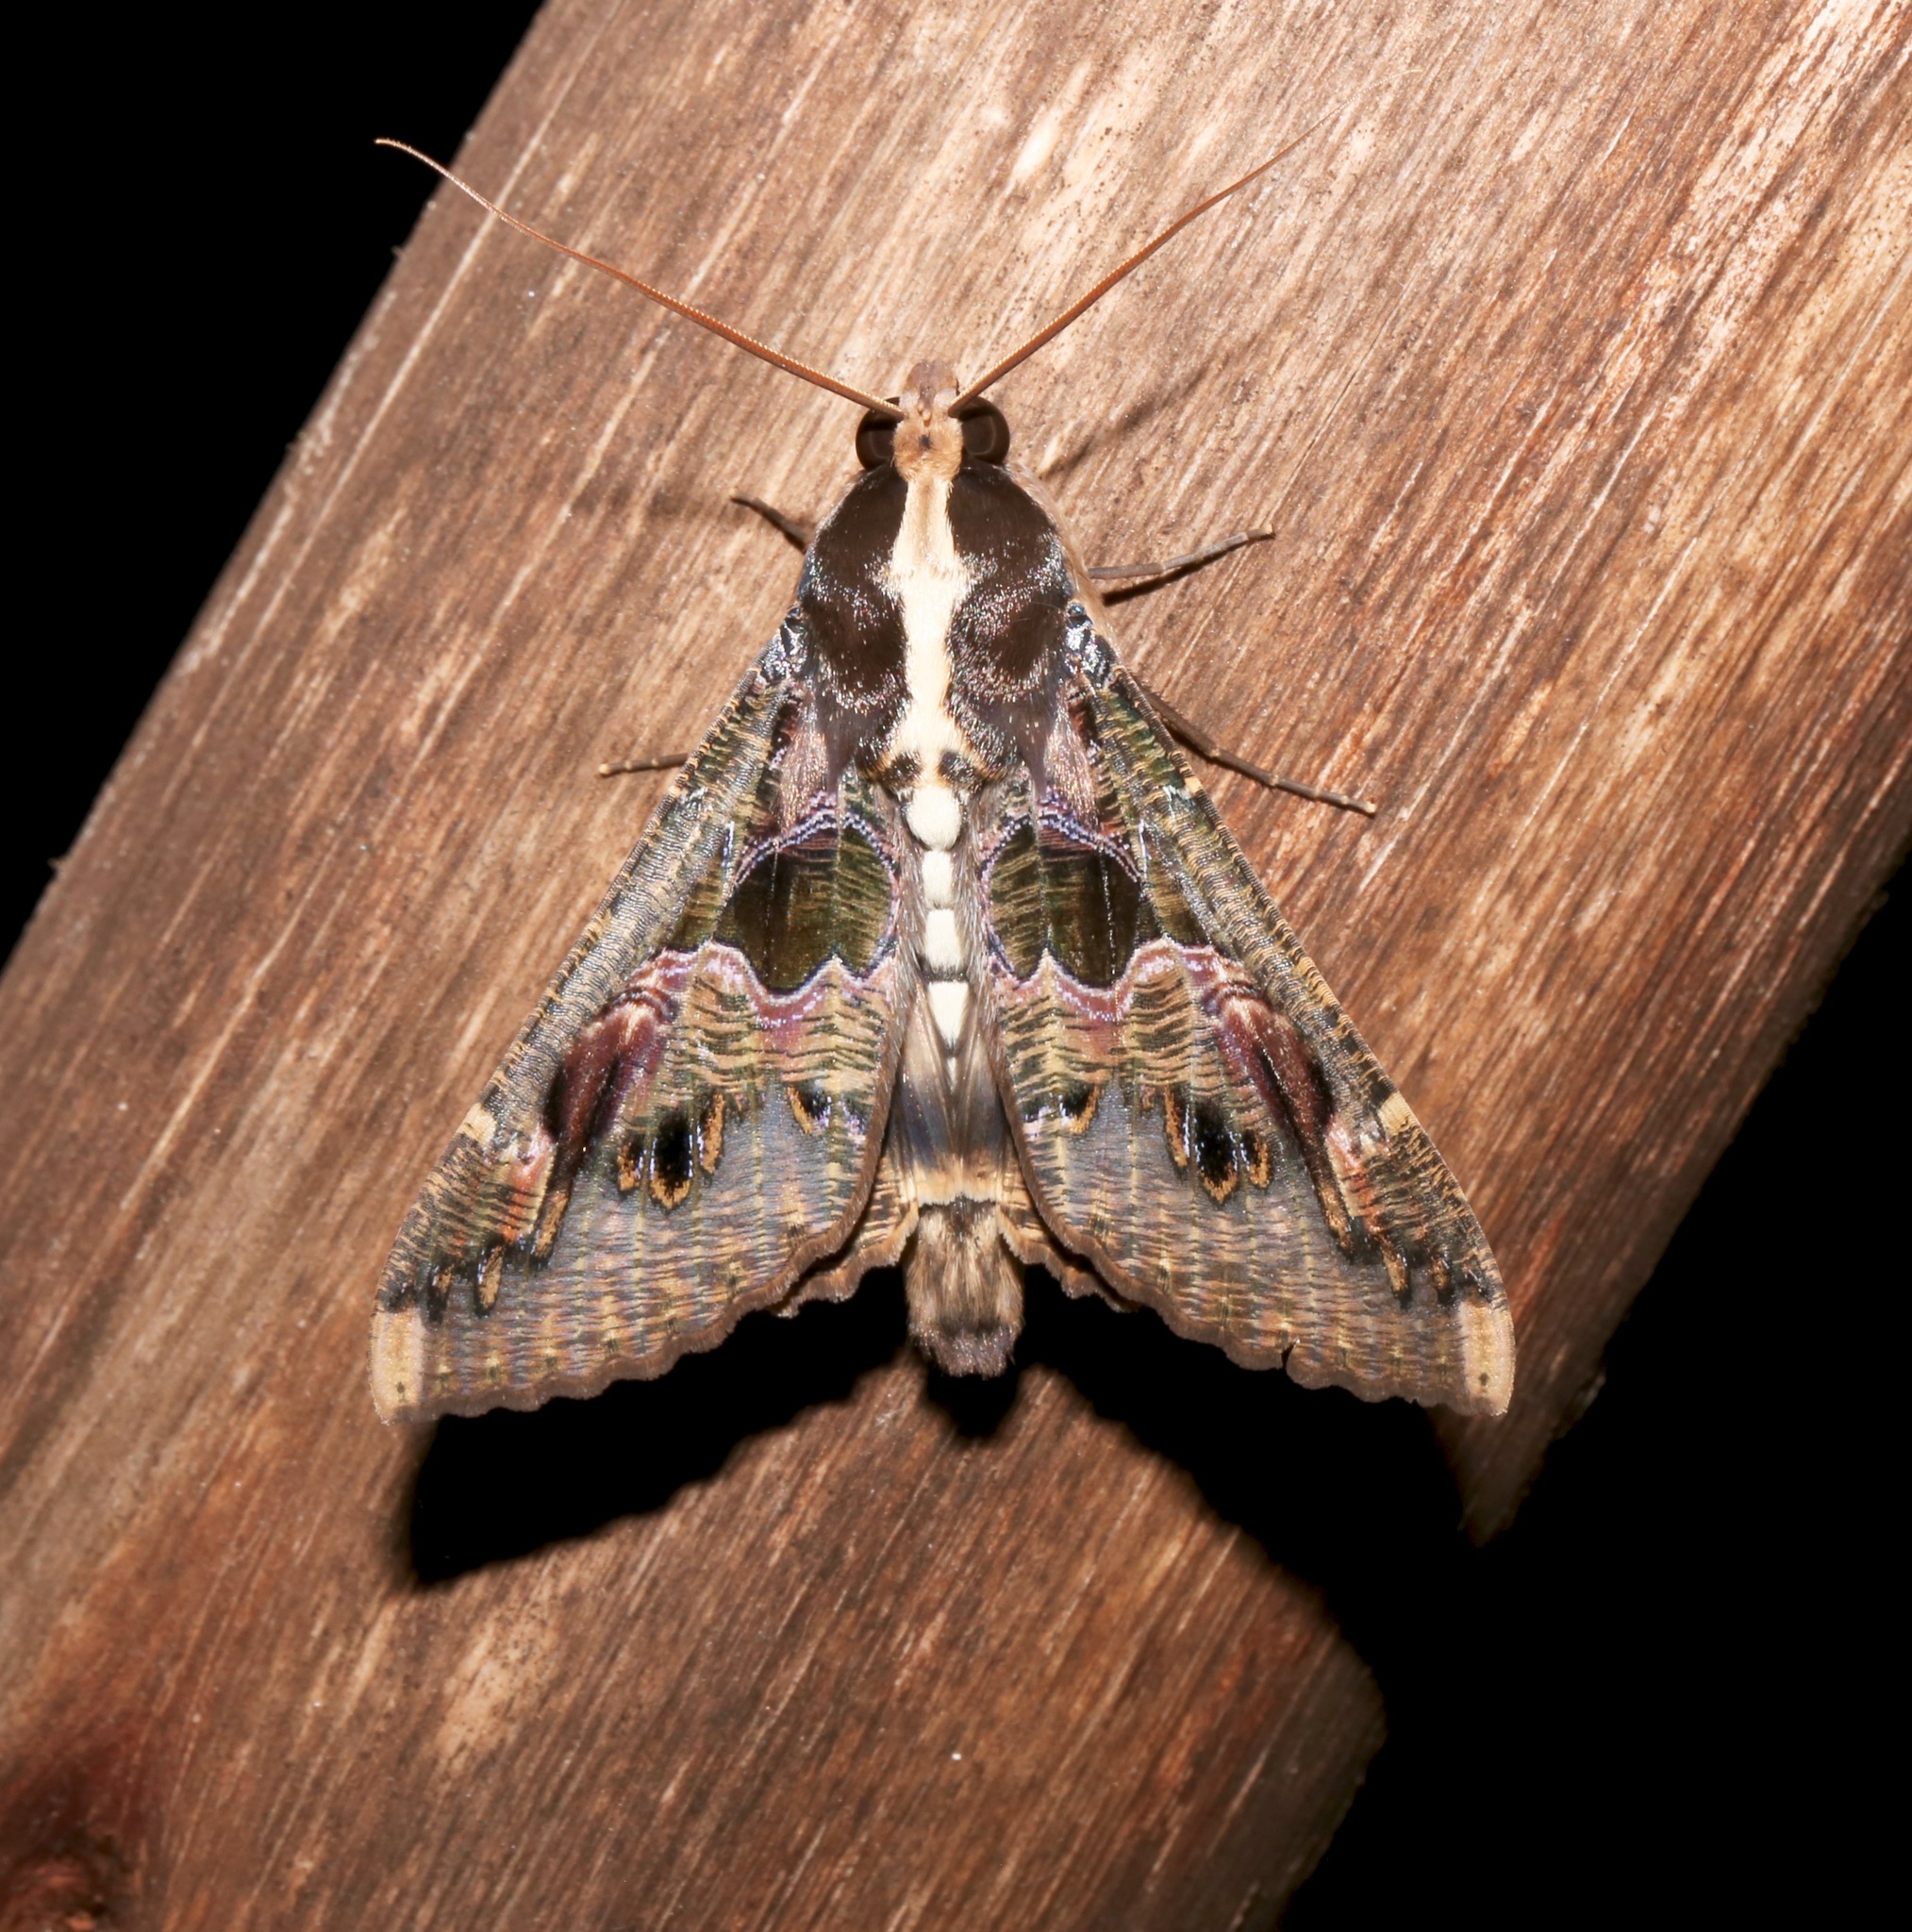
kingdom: Animalia
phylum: Arthropoda
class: Insecta
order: Lepidoptera
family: Erebidae
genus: Sphingomorpha
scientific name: Sphingomorpha chlorea
